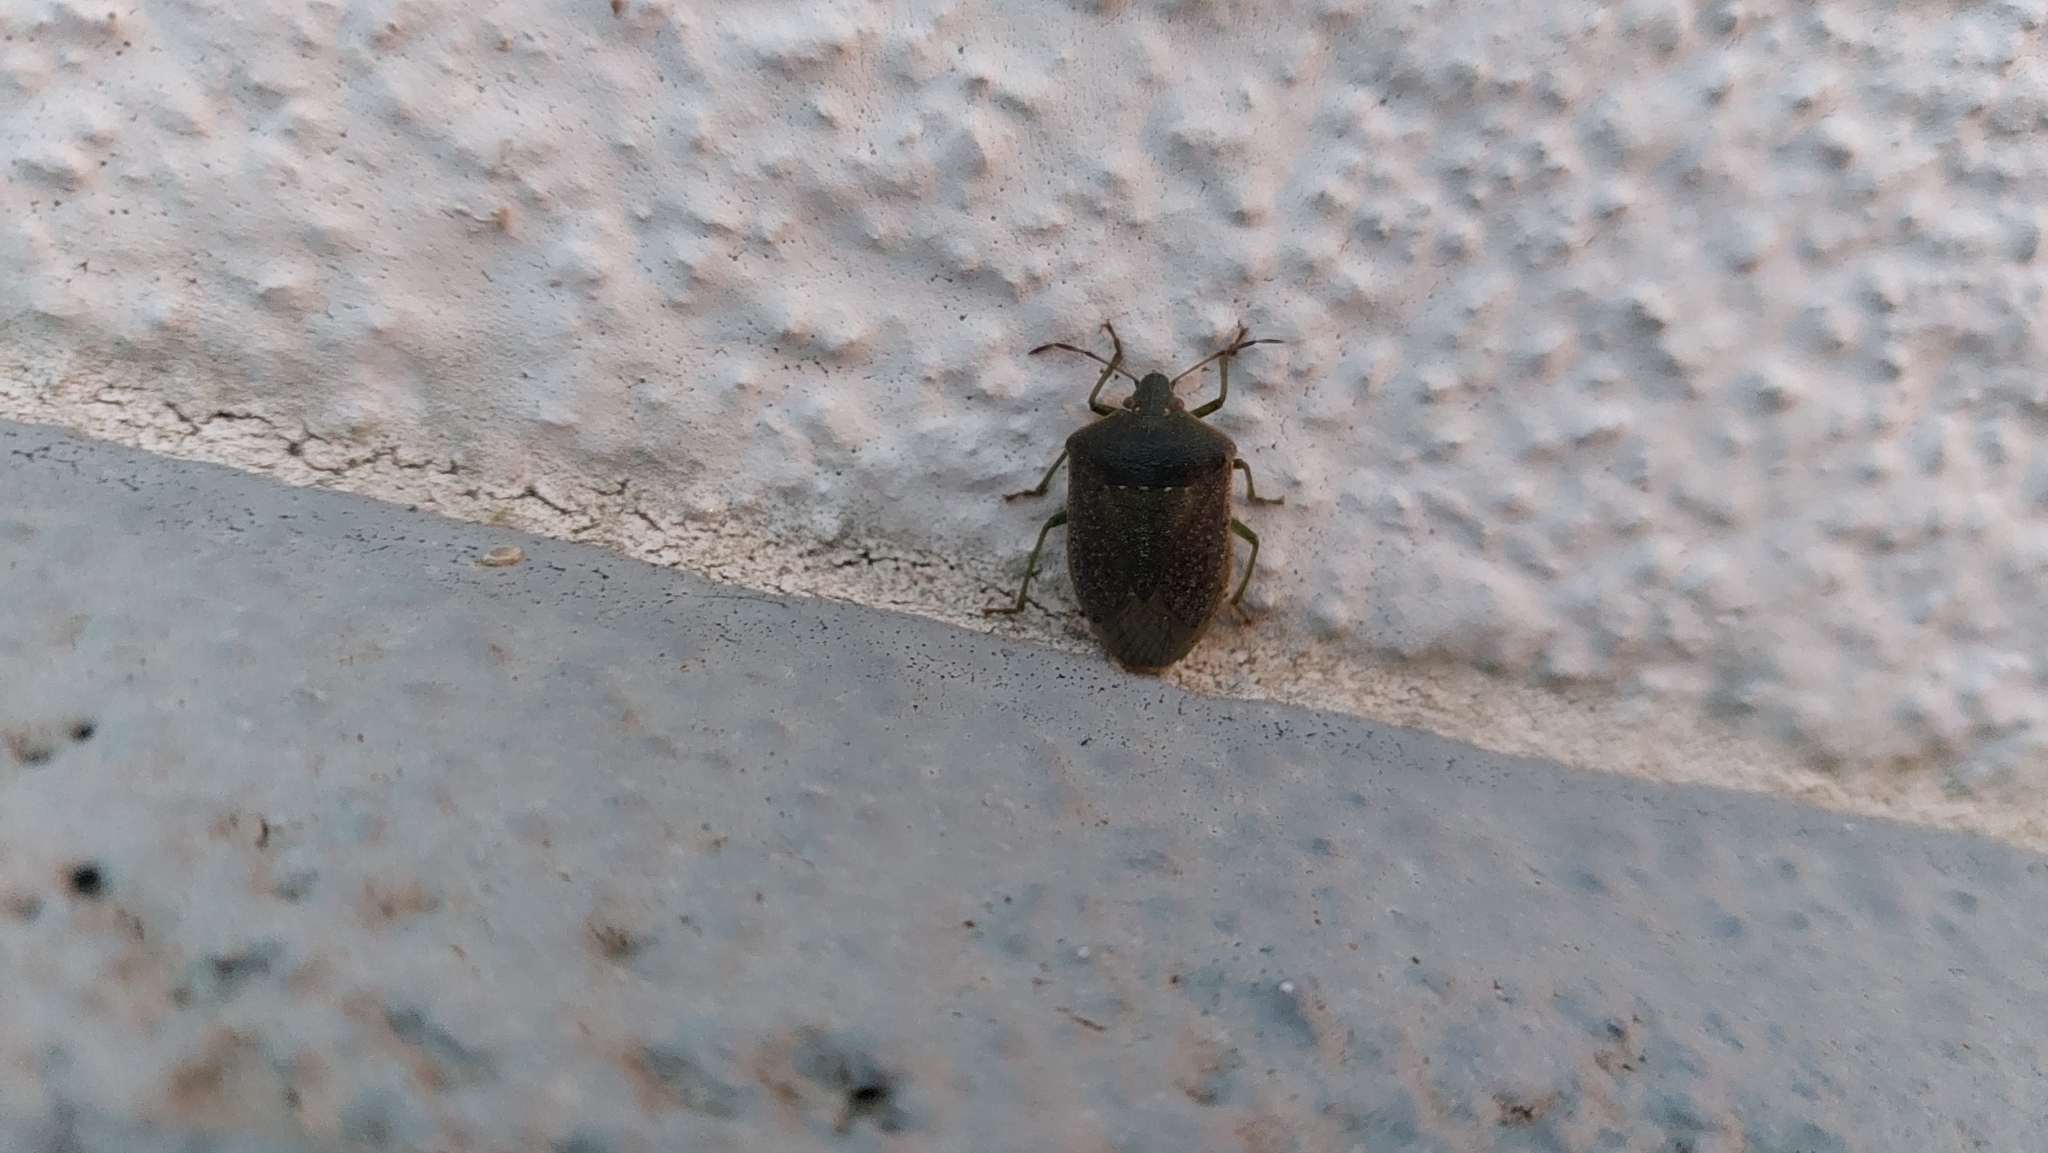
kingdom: Animalia
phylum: Arthropoda
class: Insecta
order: Hemiptera
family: Pentatomidae
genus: Nezara
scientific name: Nezara viridula
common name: Southern green stink bug
